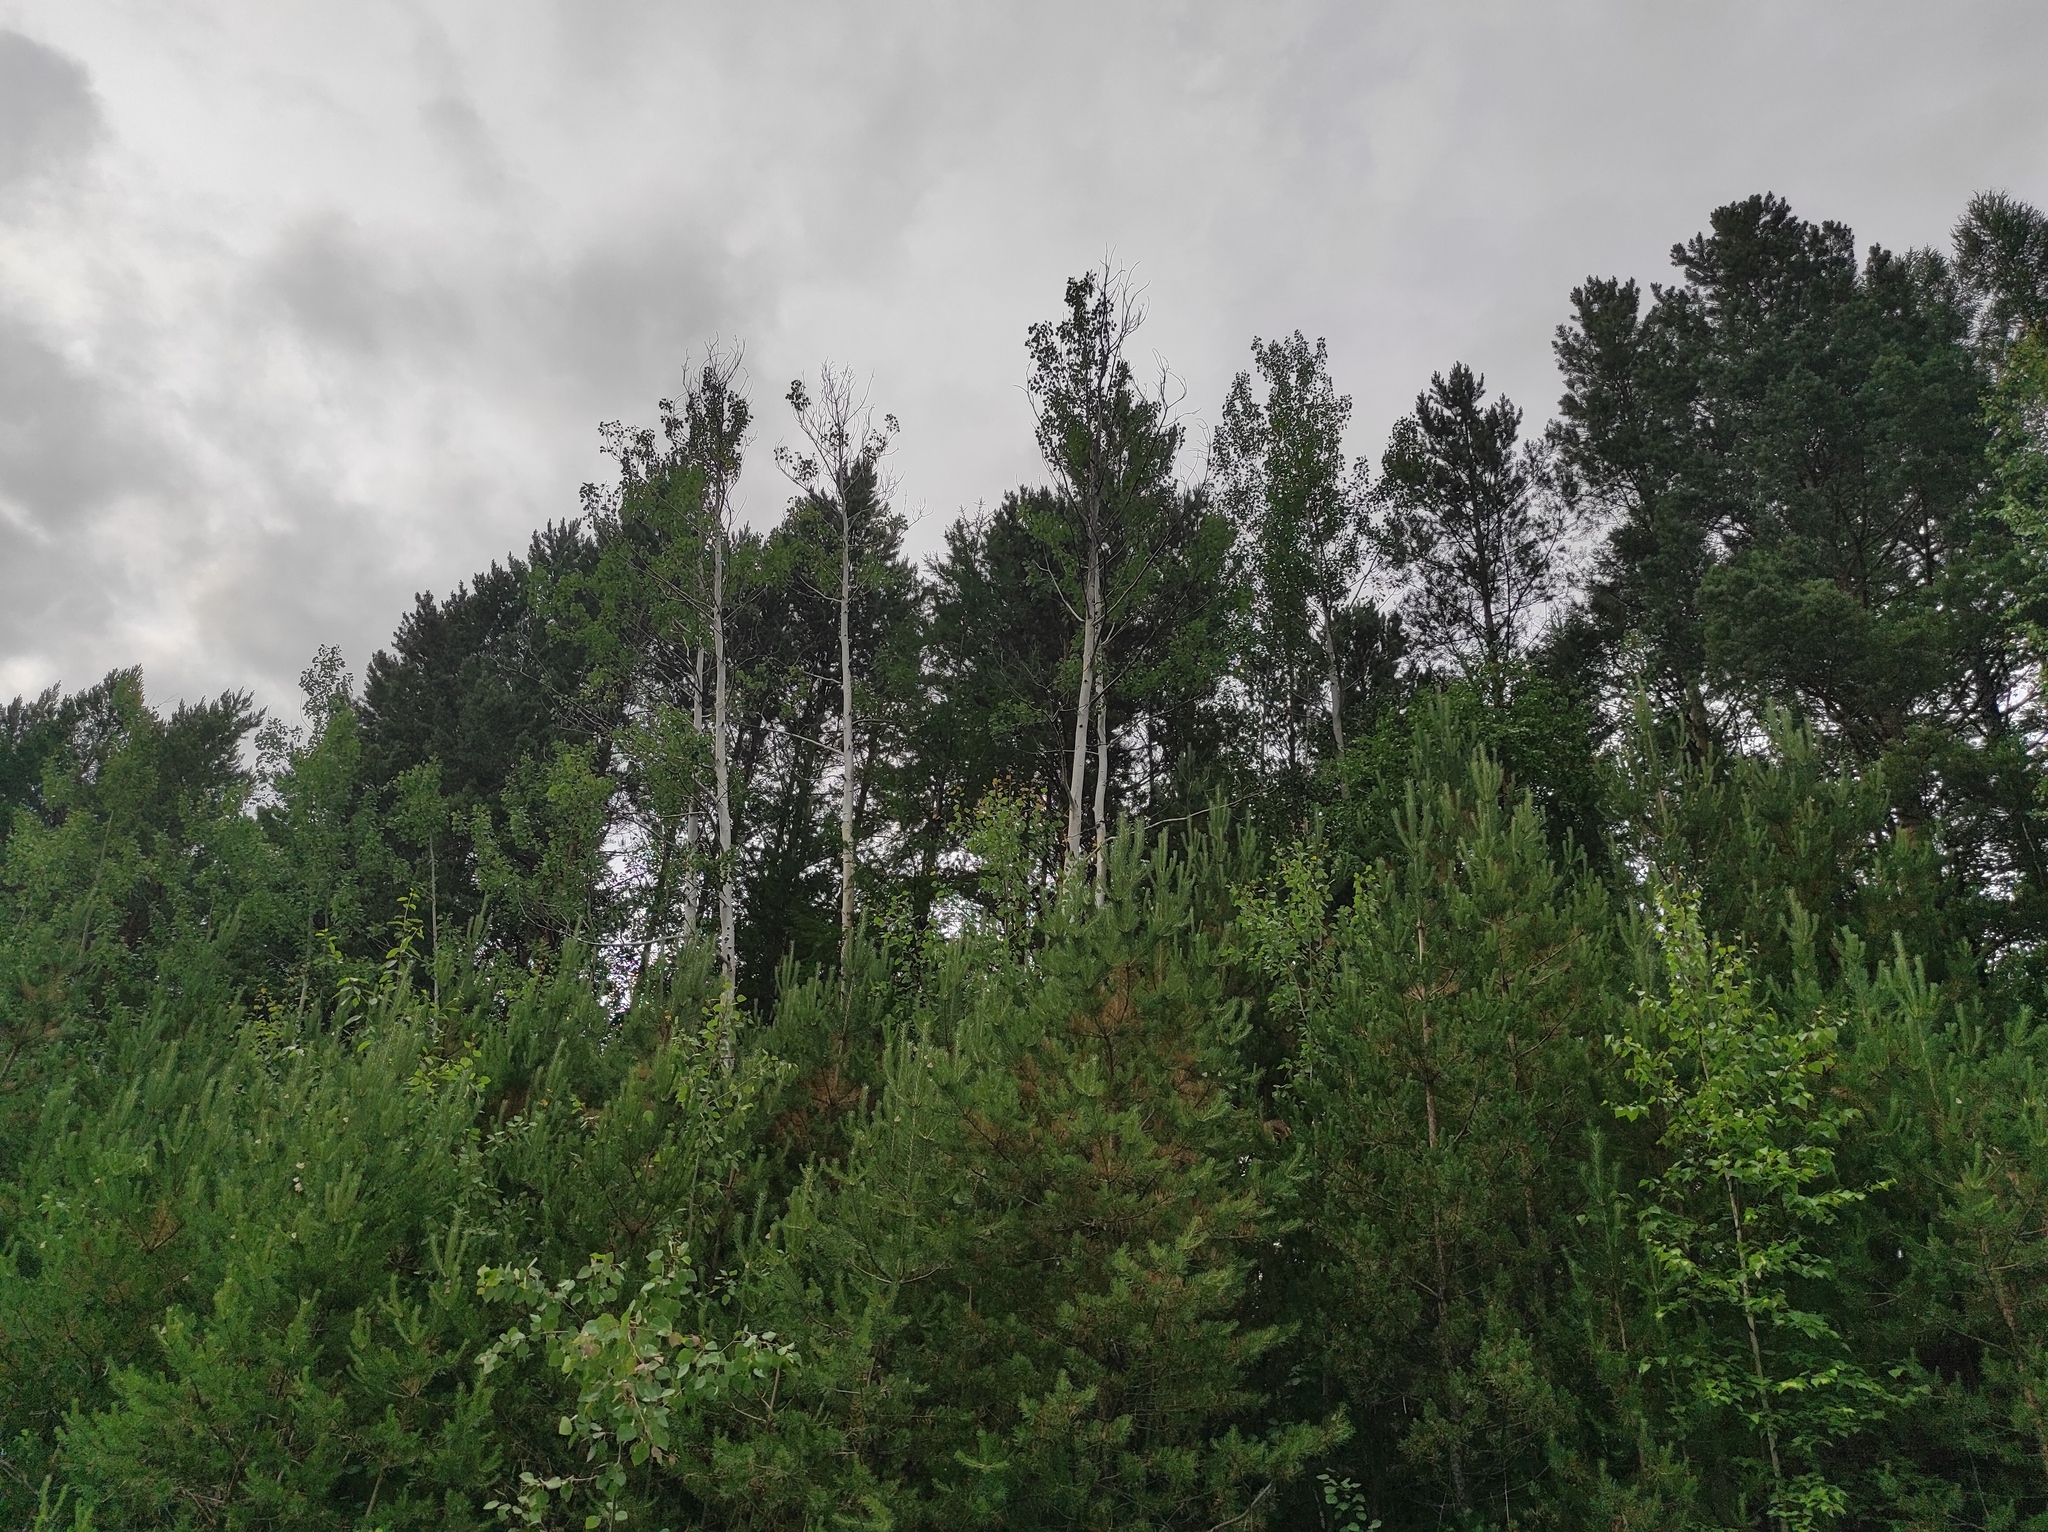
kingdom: Plantae
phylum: Tracheophyta
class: Pinopsida
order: Pinales
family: Pinaceae
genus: Pinus
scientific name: Pinus sylvestris
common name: Scots pine
